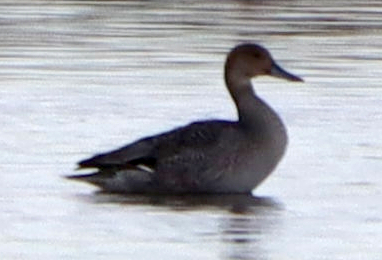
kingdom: Animalia
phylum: Chordata
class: Aves
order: Anseriformes
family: Anatidae
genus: Anas
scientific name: Anas acuta
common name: Northern pintail
